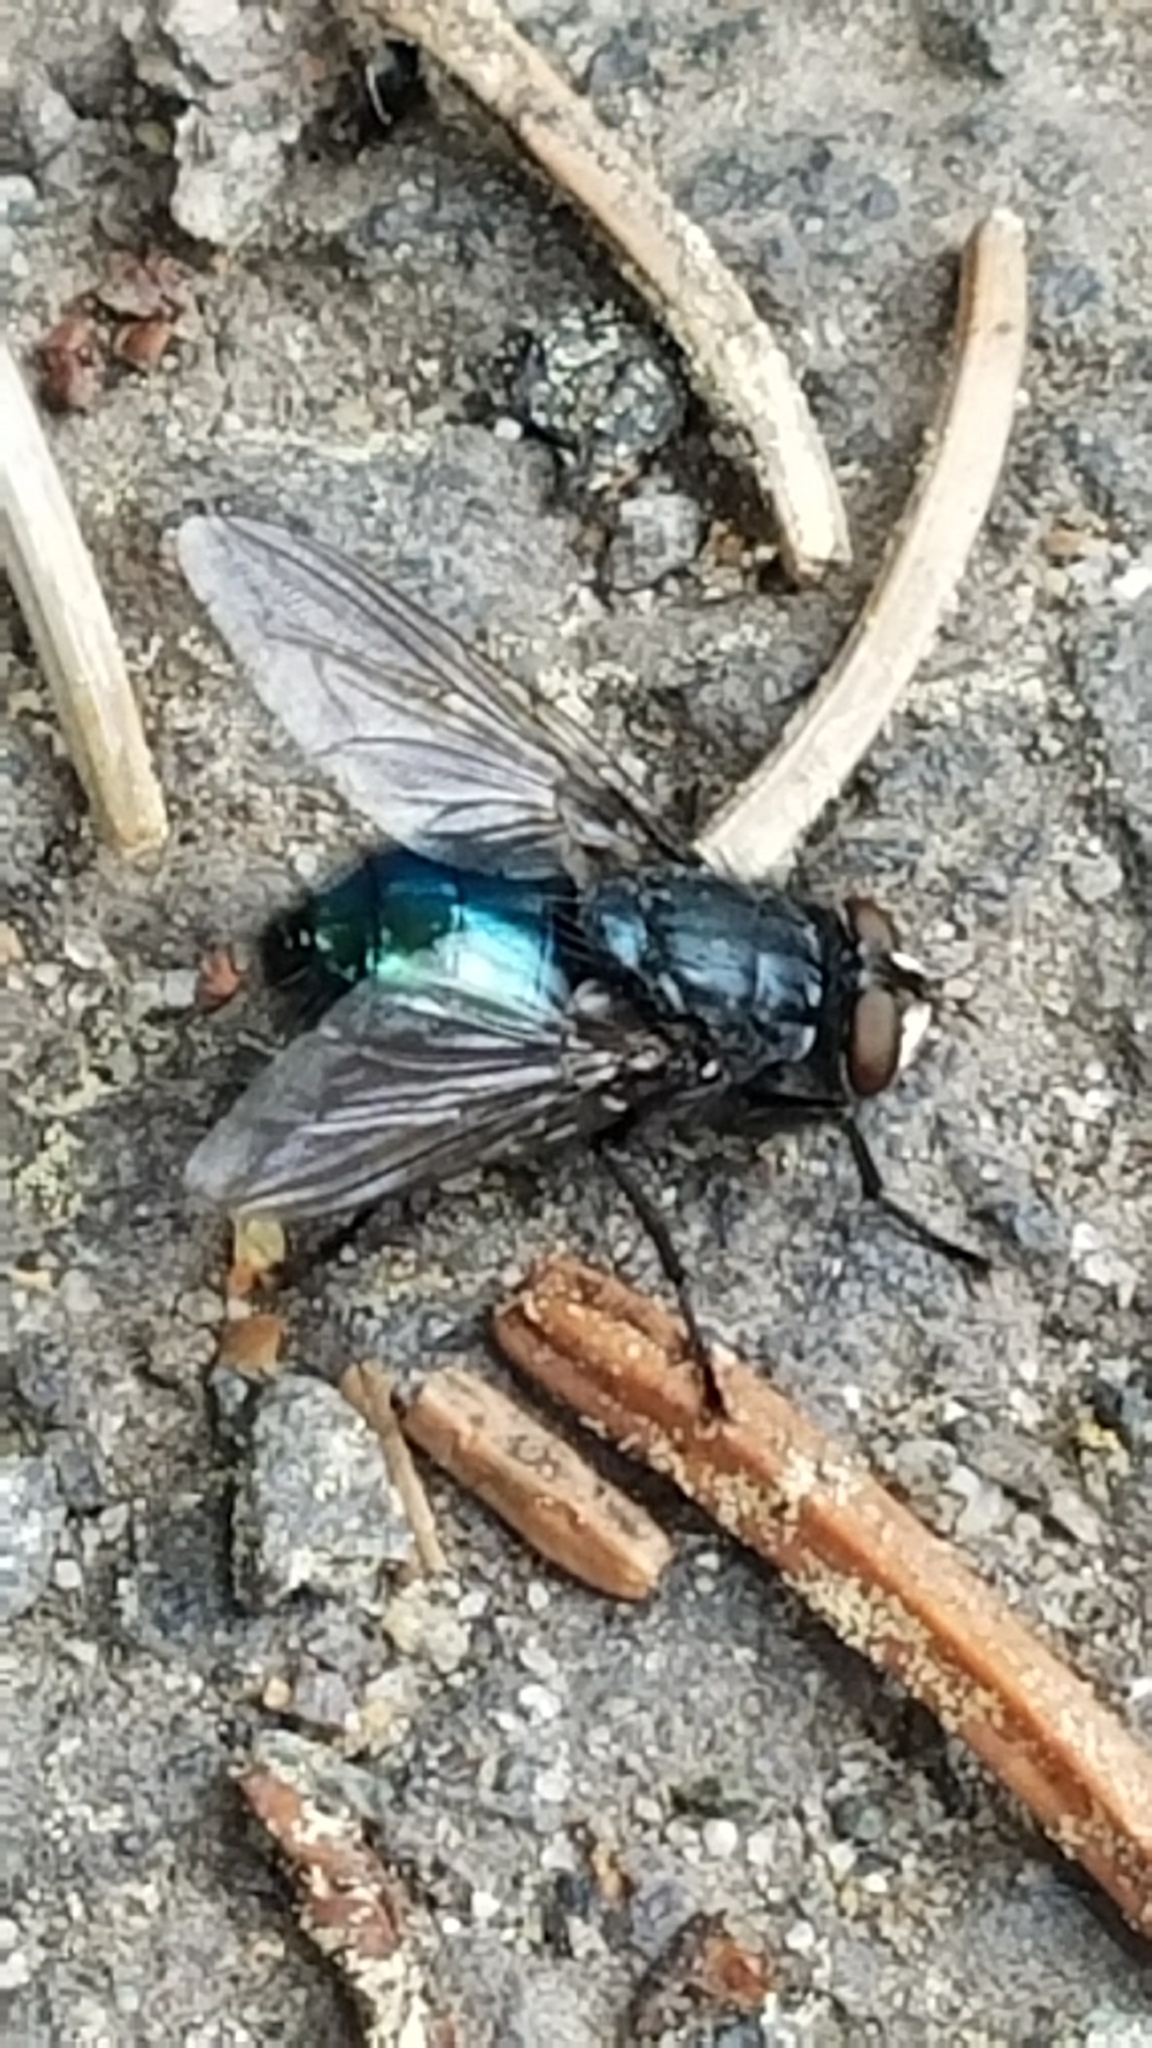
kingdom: Animalia
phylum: Arthropoda
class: Insecta
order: Diptera
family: Calliphoridae
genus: Cynomya
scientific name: Cynomya cadaverina
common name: Shiny blue bottle fly
